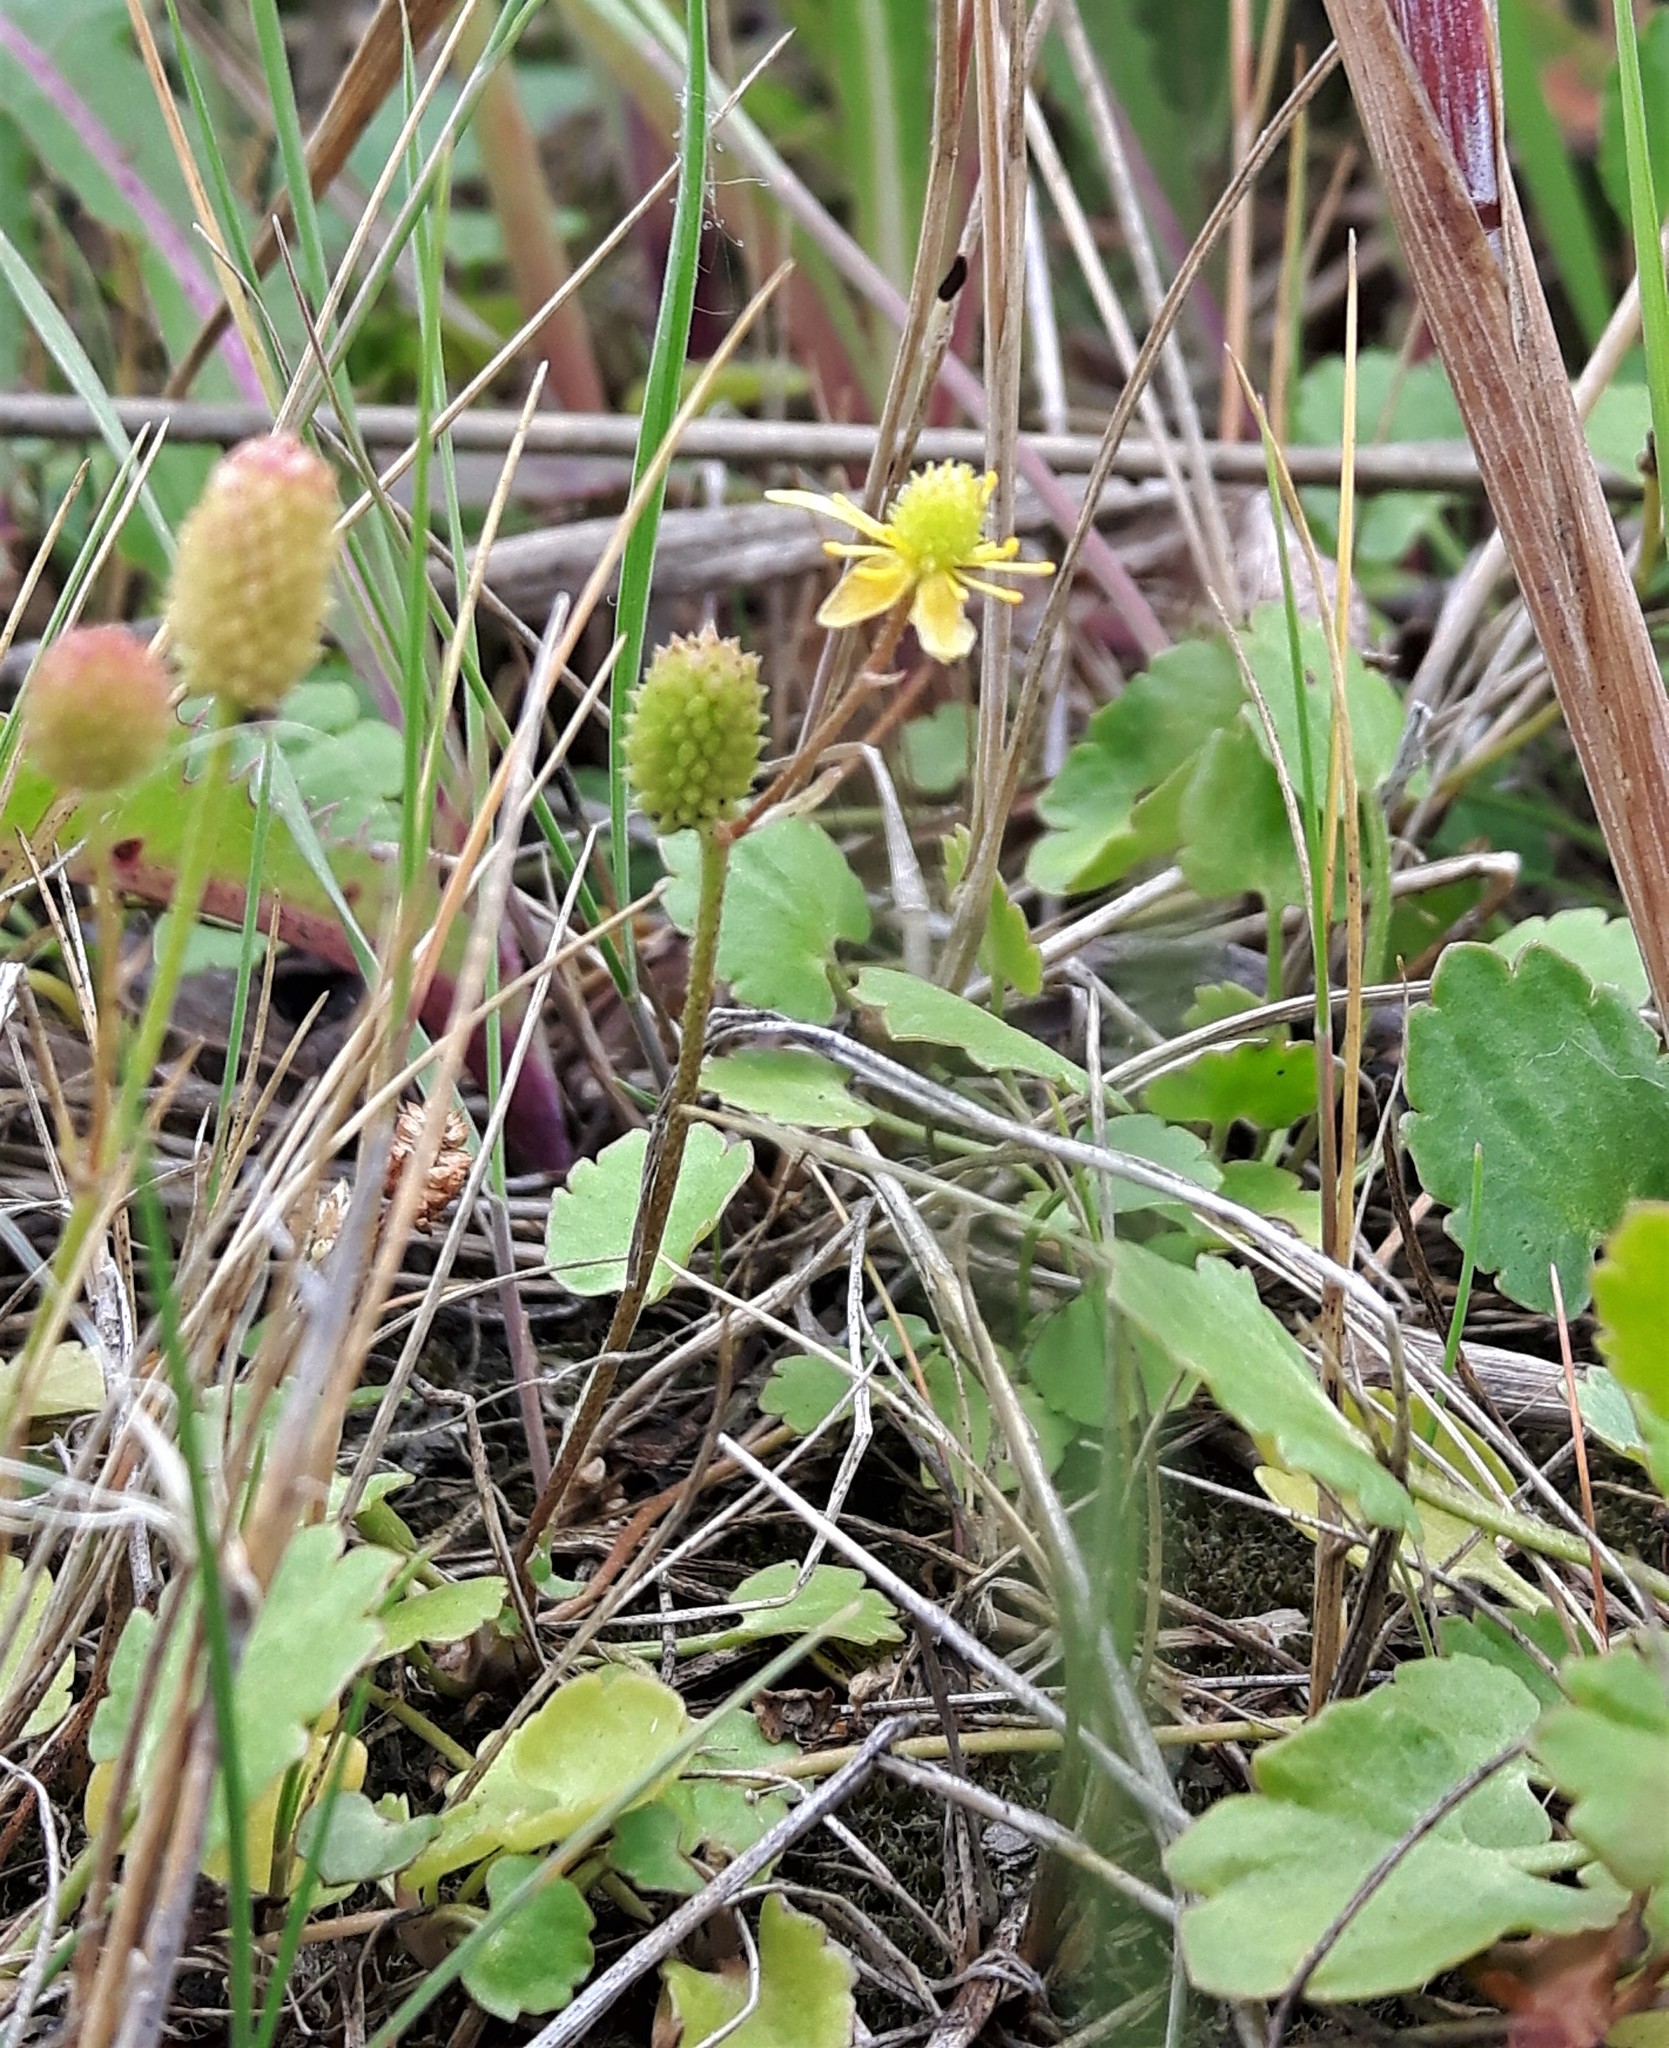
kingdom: Plantae
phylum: Tracheophyta
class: Magnoliopsida
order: Ranunculales
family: Ranunculaceae
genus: Halerpestes
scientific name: Halerpestes cymbalaria
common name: Seaside crowfoot
